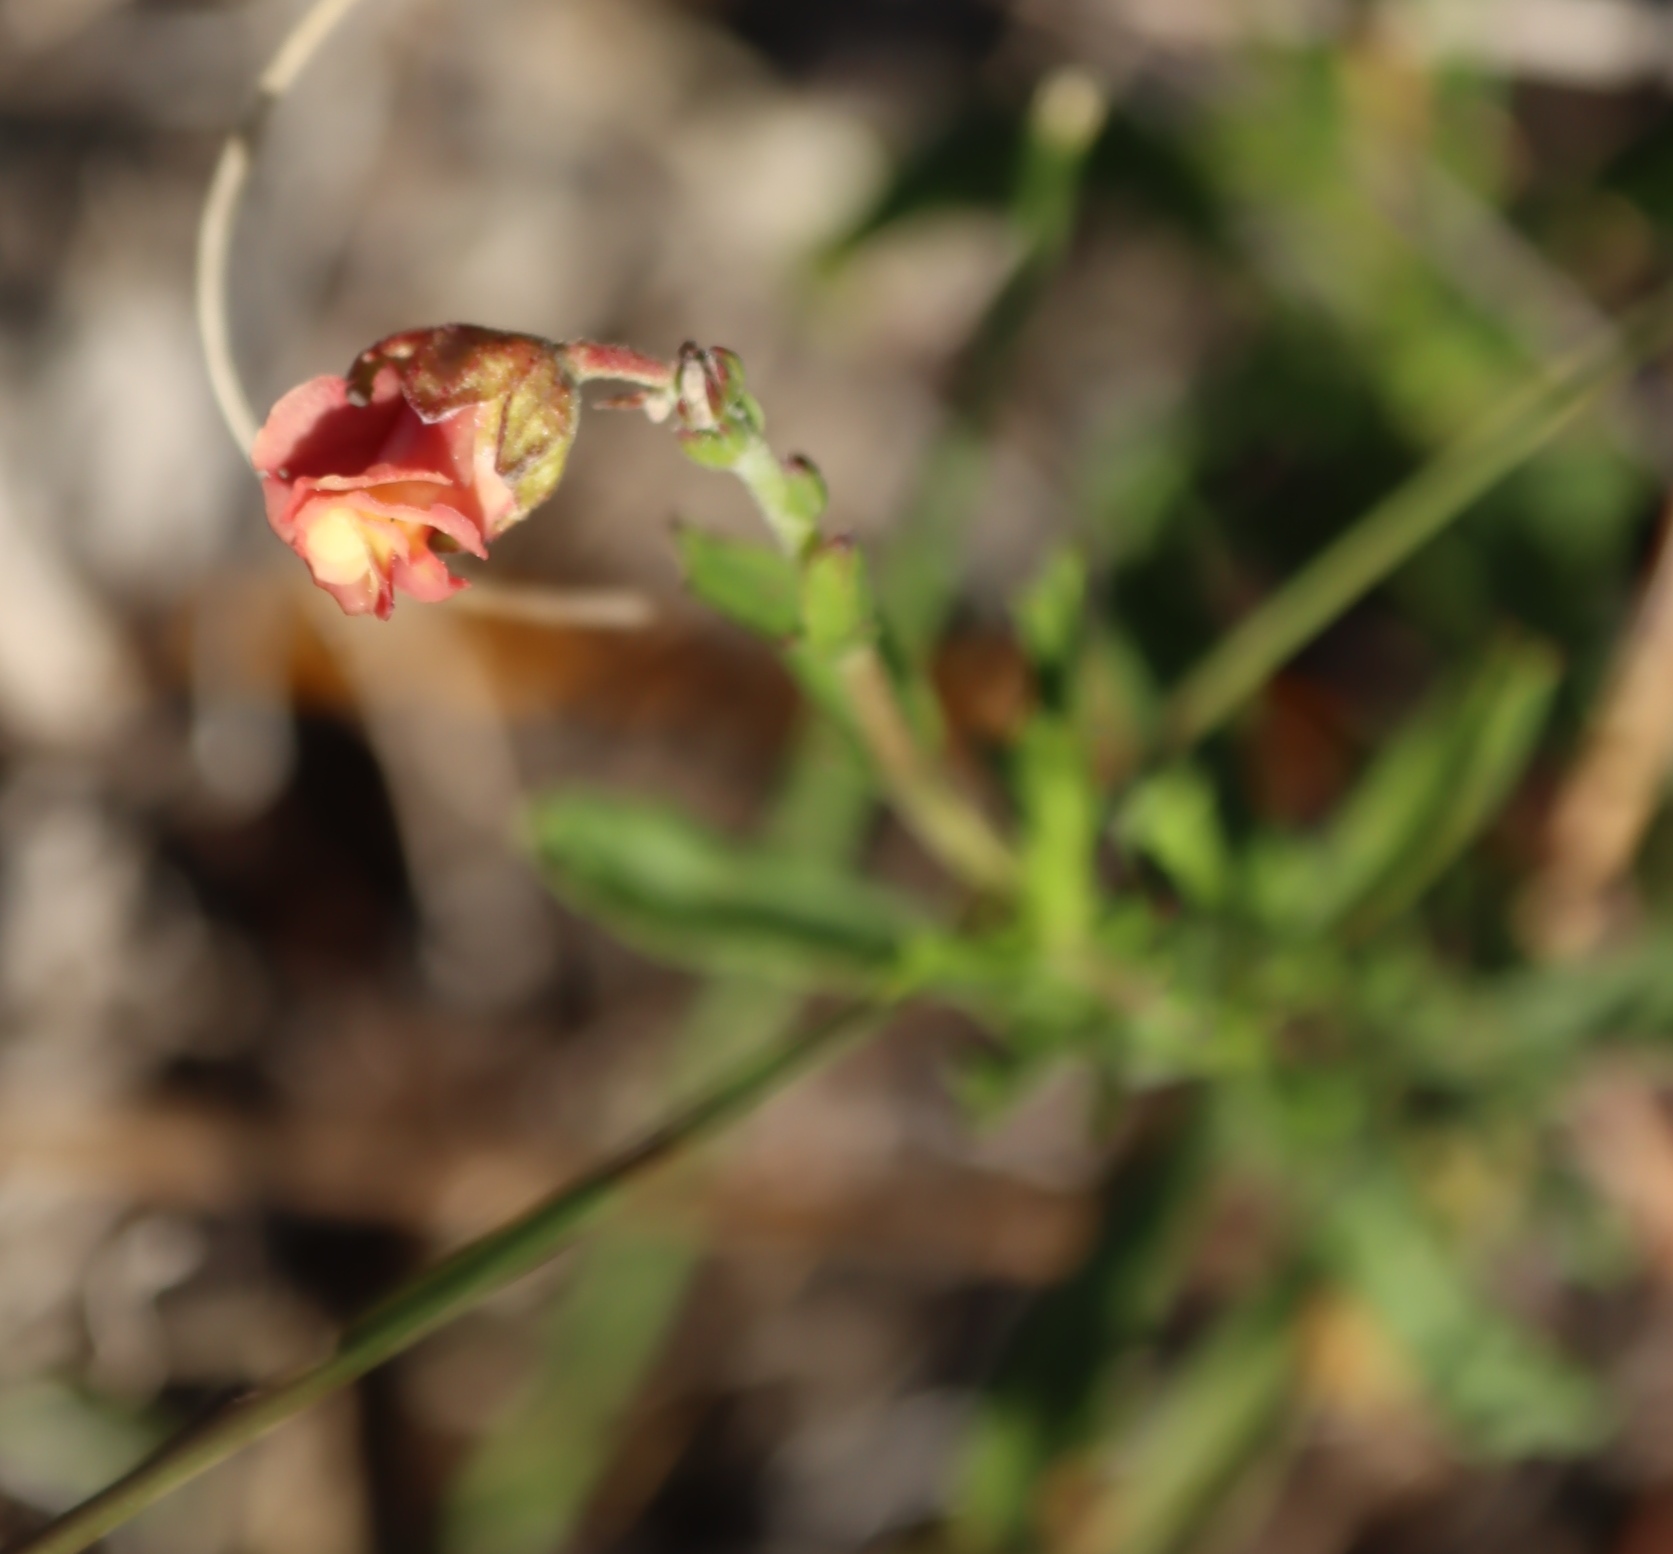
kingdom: Plantae
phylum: Tracheophyta
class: Magnoliopsida
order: Malvales
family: Malvaceae
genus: Hermannia
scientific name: Hermannia flammea
